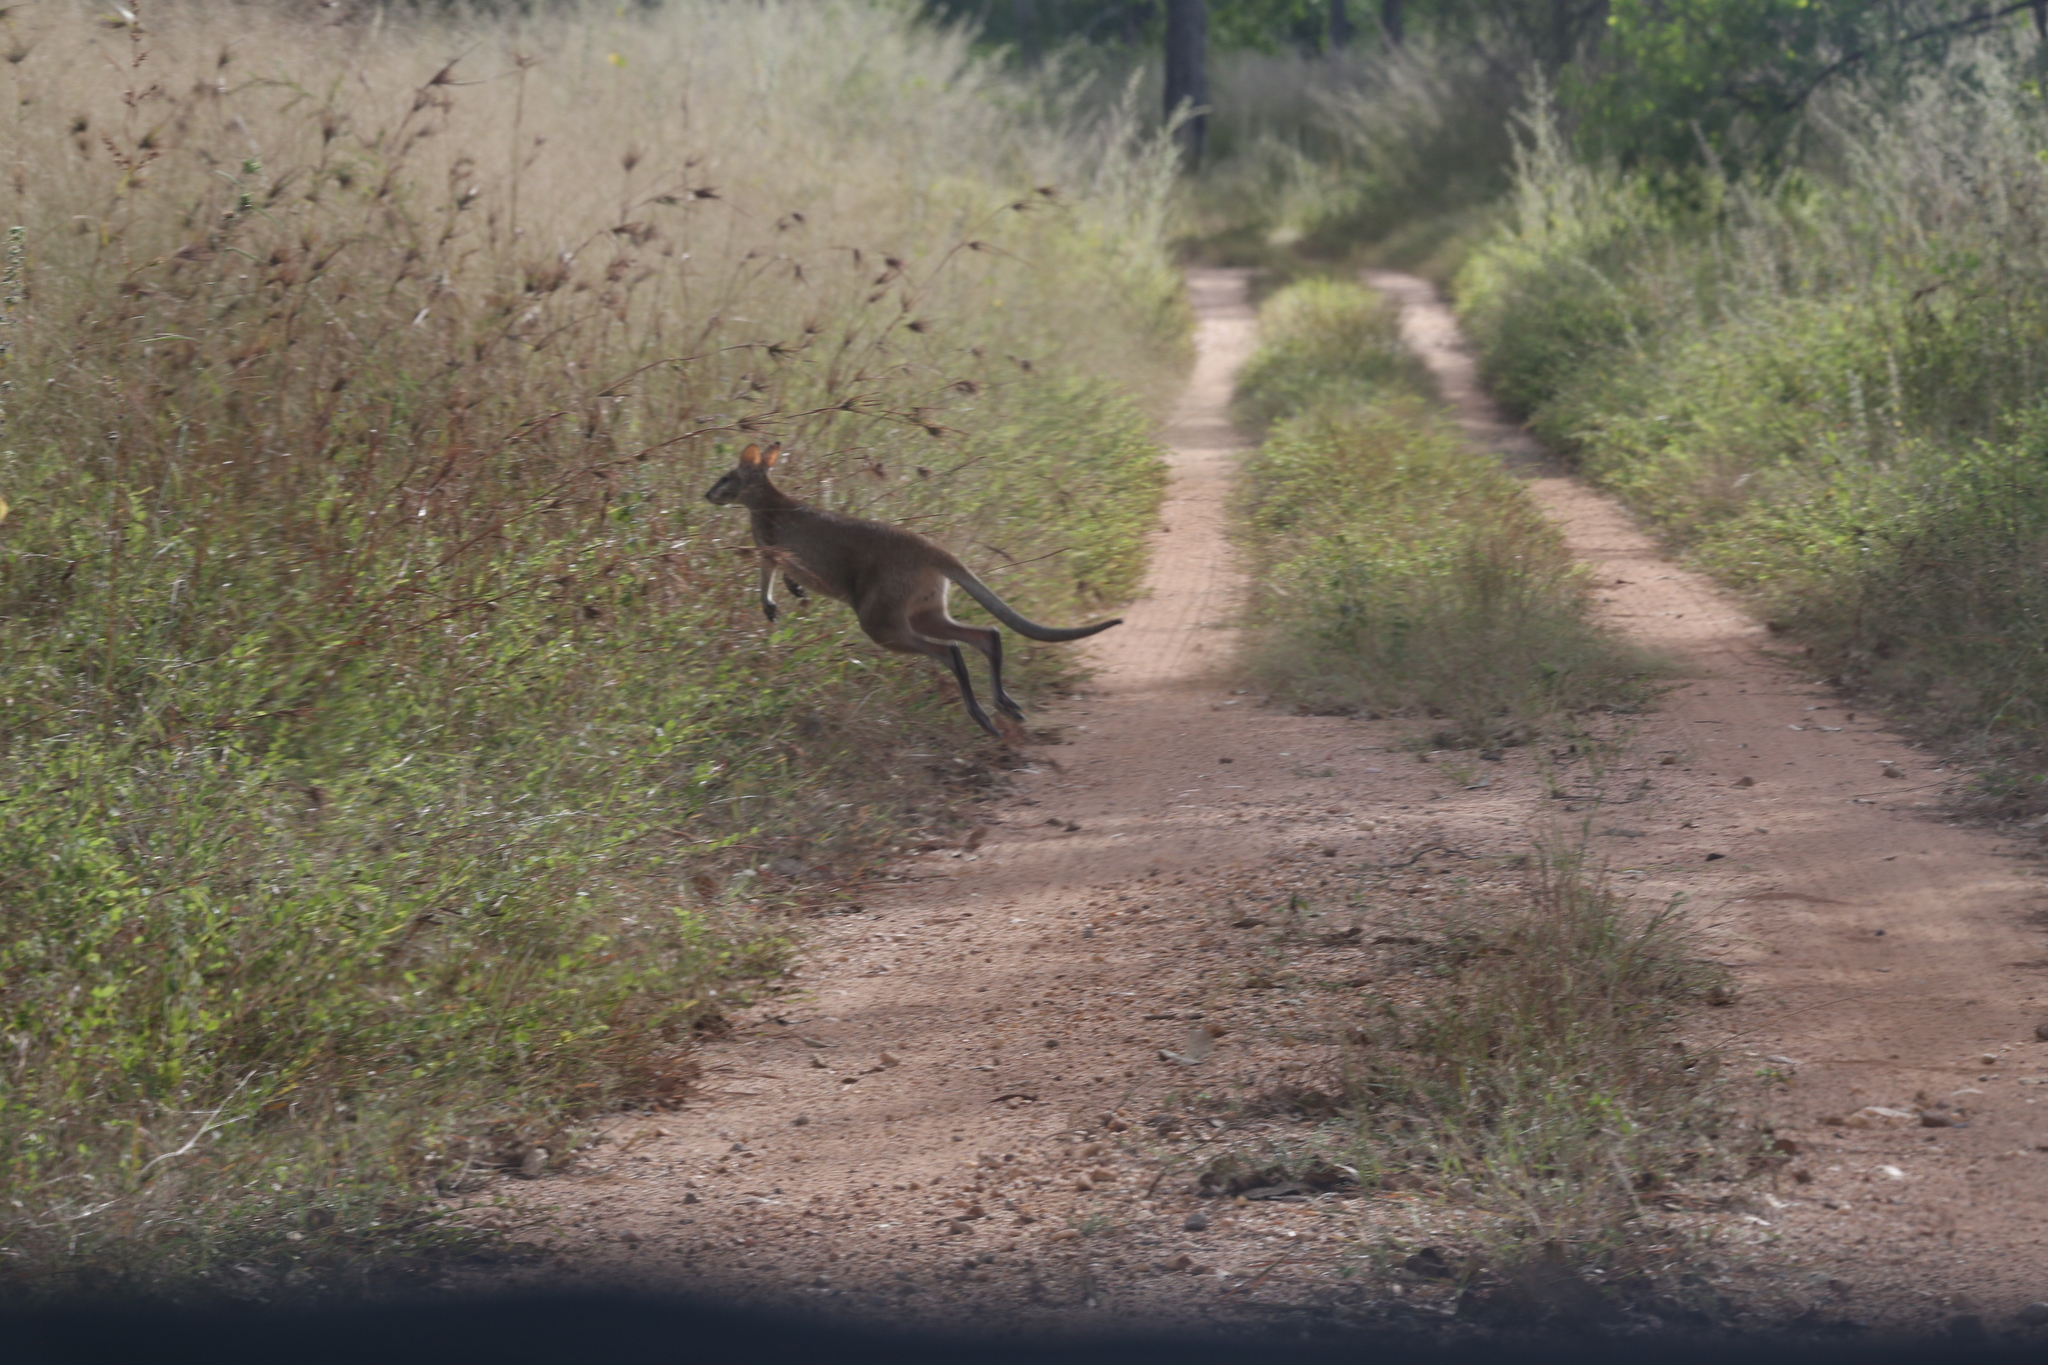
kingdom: Animalia
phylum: Chordata
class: Mammalia
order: Diprotodontia
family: Macropodidae
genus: Macropus
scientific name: Macropus agilis
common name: Agile wallaby
